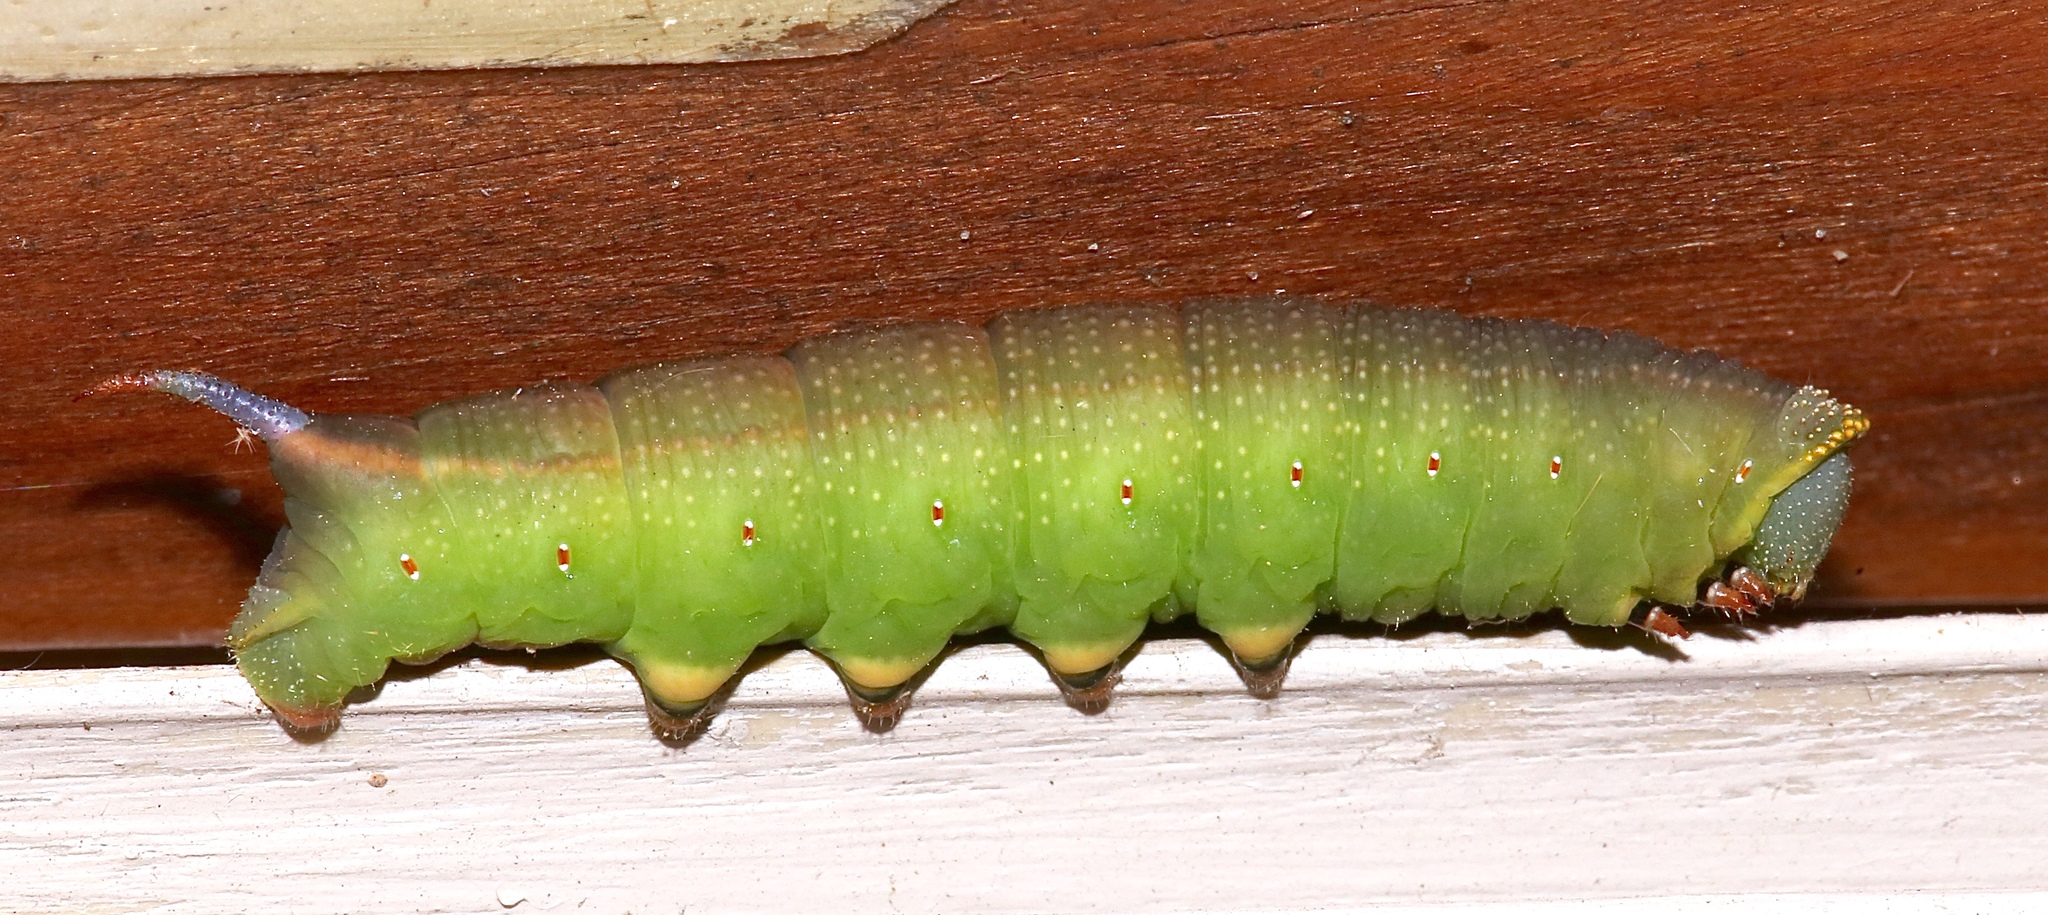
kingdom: Animalia
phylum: Arthropoda
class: Insecta
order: Lepidoptera
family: Sphingidae
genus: Hemaris
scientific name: Hemaris thysbe
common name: Common clear-wing
